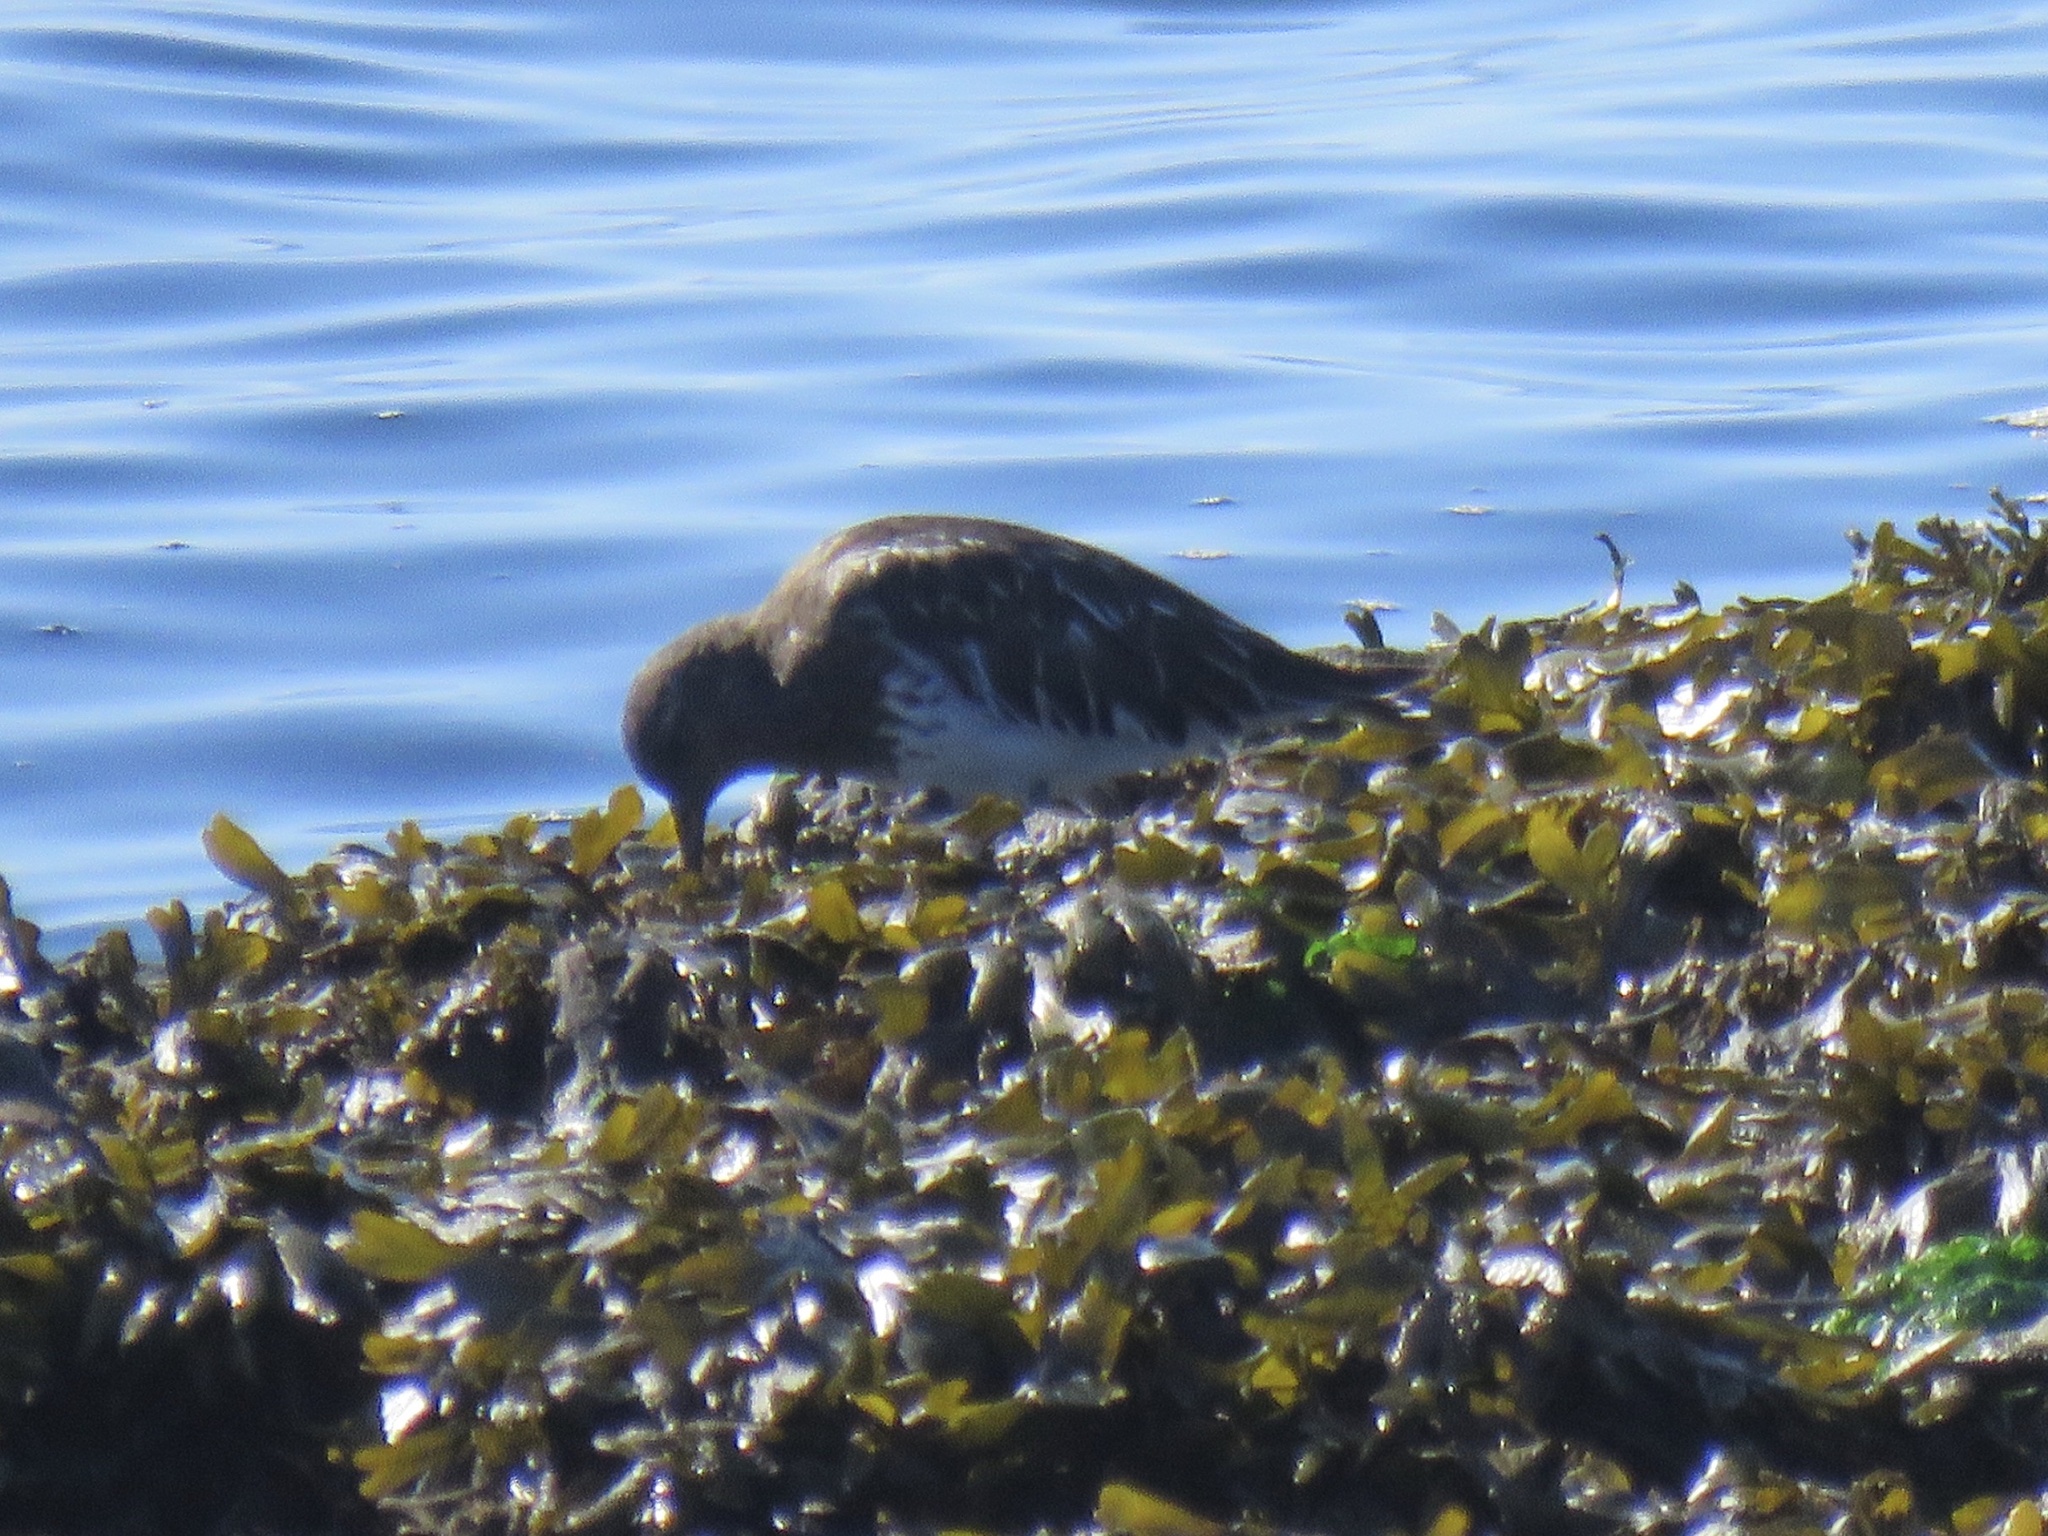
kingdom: Animalia
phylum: Chordata
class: Aves
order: Charadriiformes
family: Scolopacidae
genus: Arenaria
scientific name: Arenaria melanocephala
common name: Black turnstone
